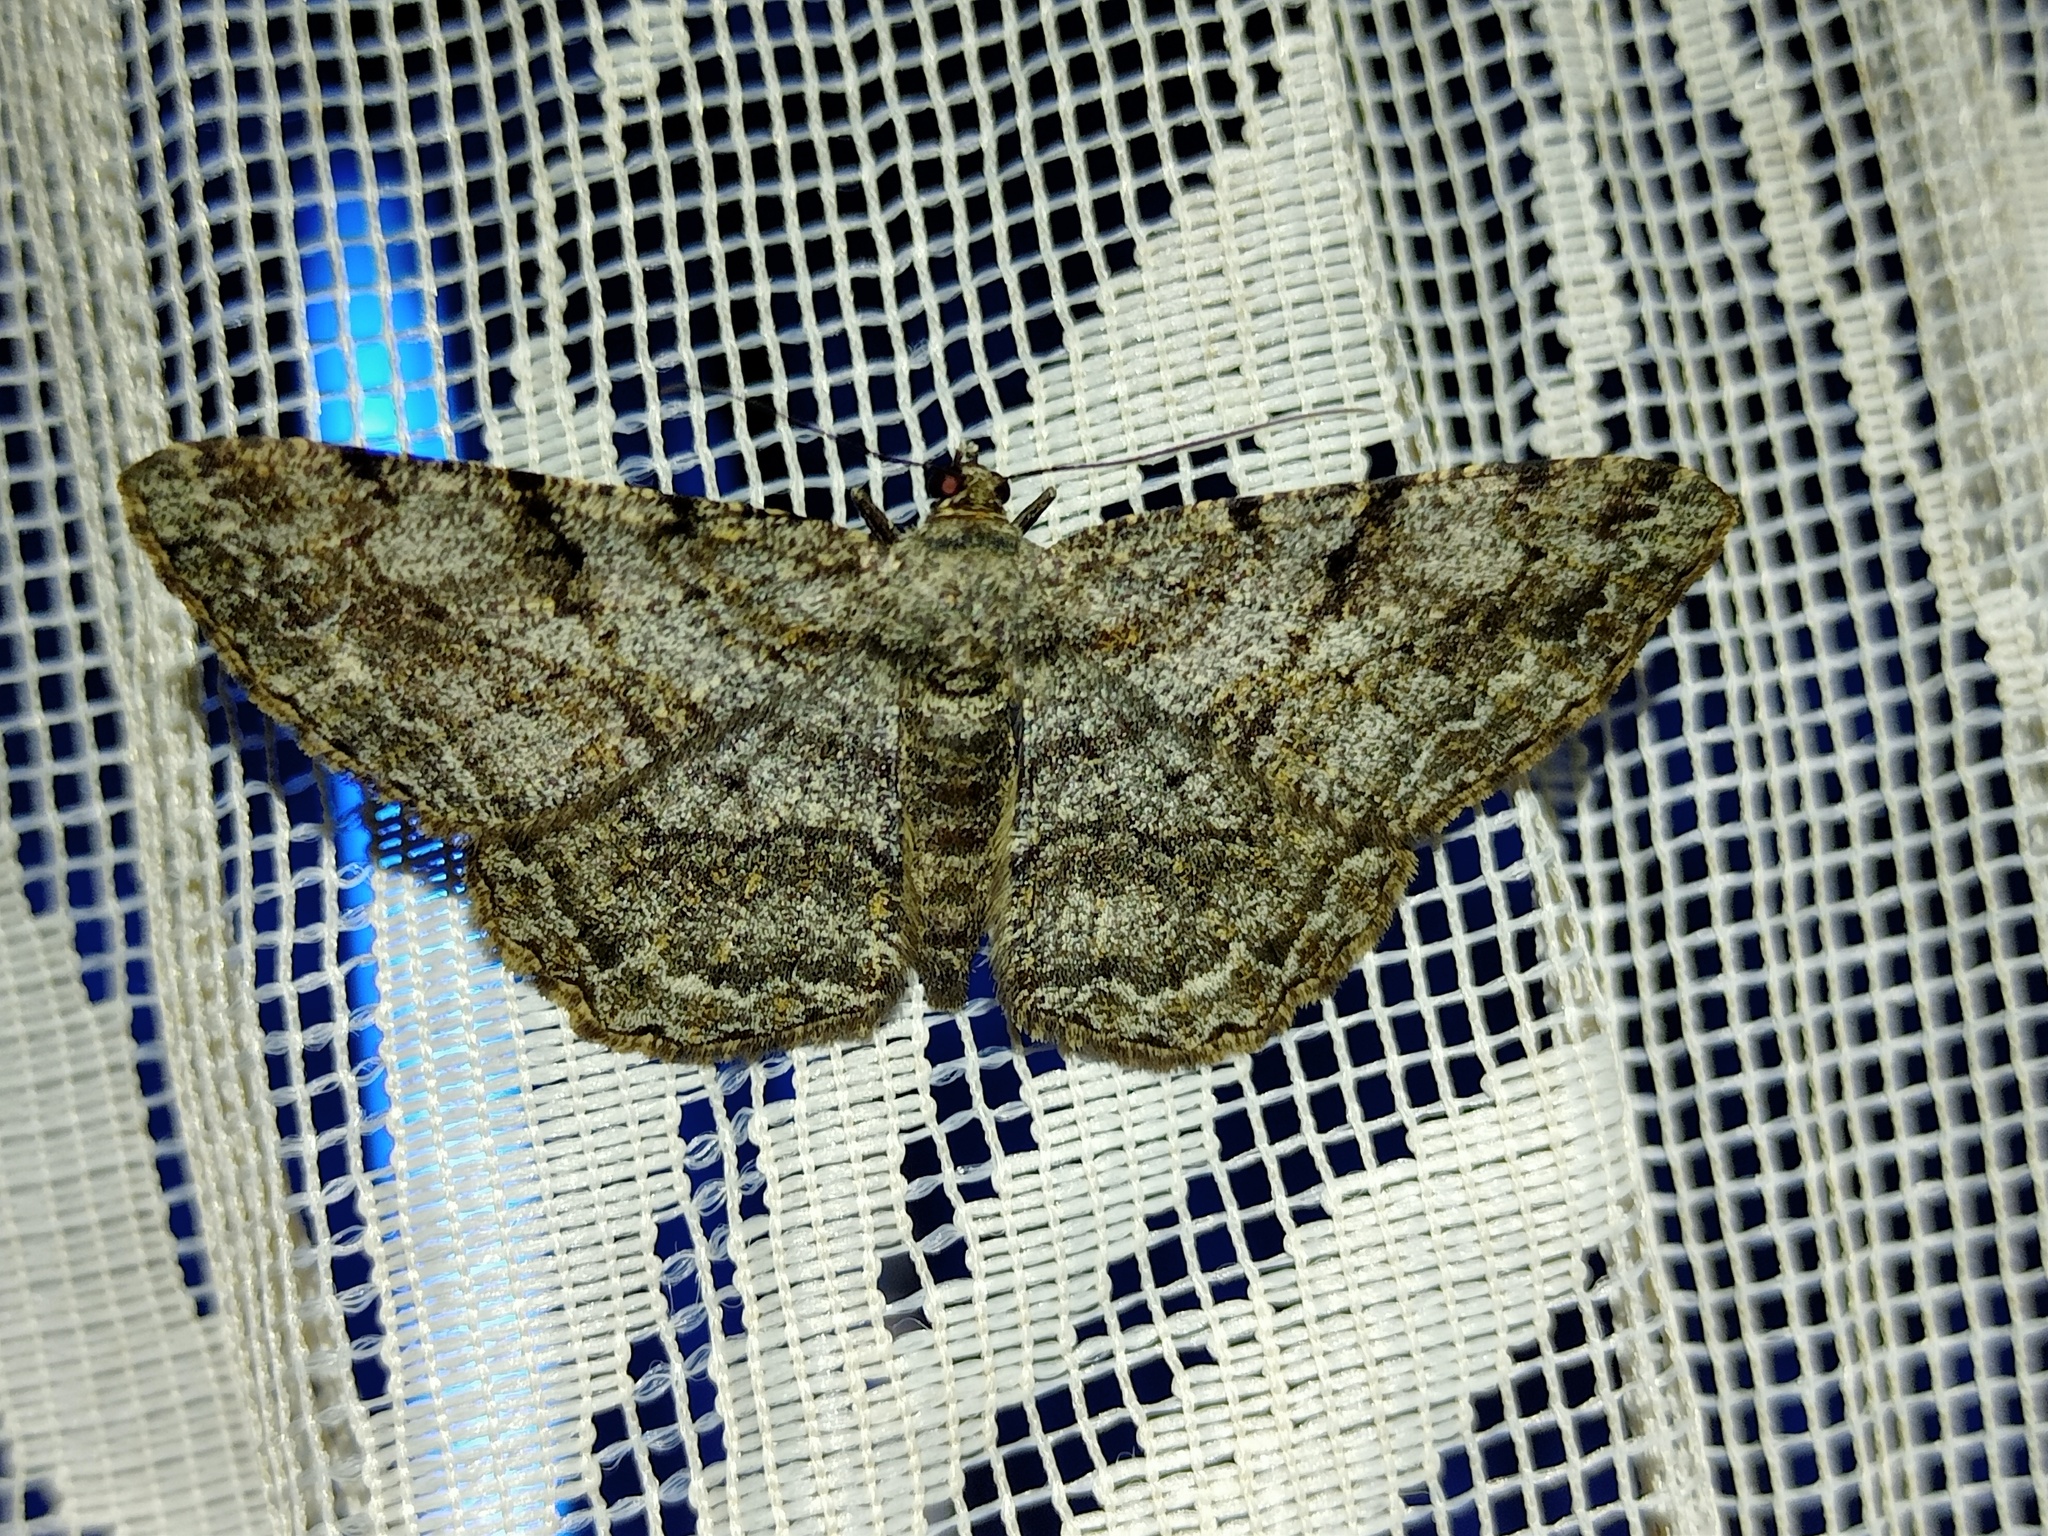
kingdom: Animalia
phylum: Arthropoda
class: Insecta
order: Lepidoptera
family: Geometridae
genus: Peribatodes
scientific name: Peribatodes rhomboidaria
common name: Willow beauty
